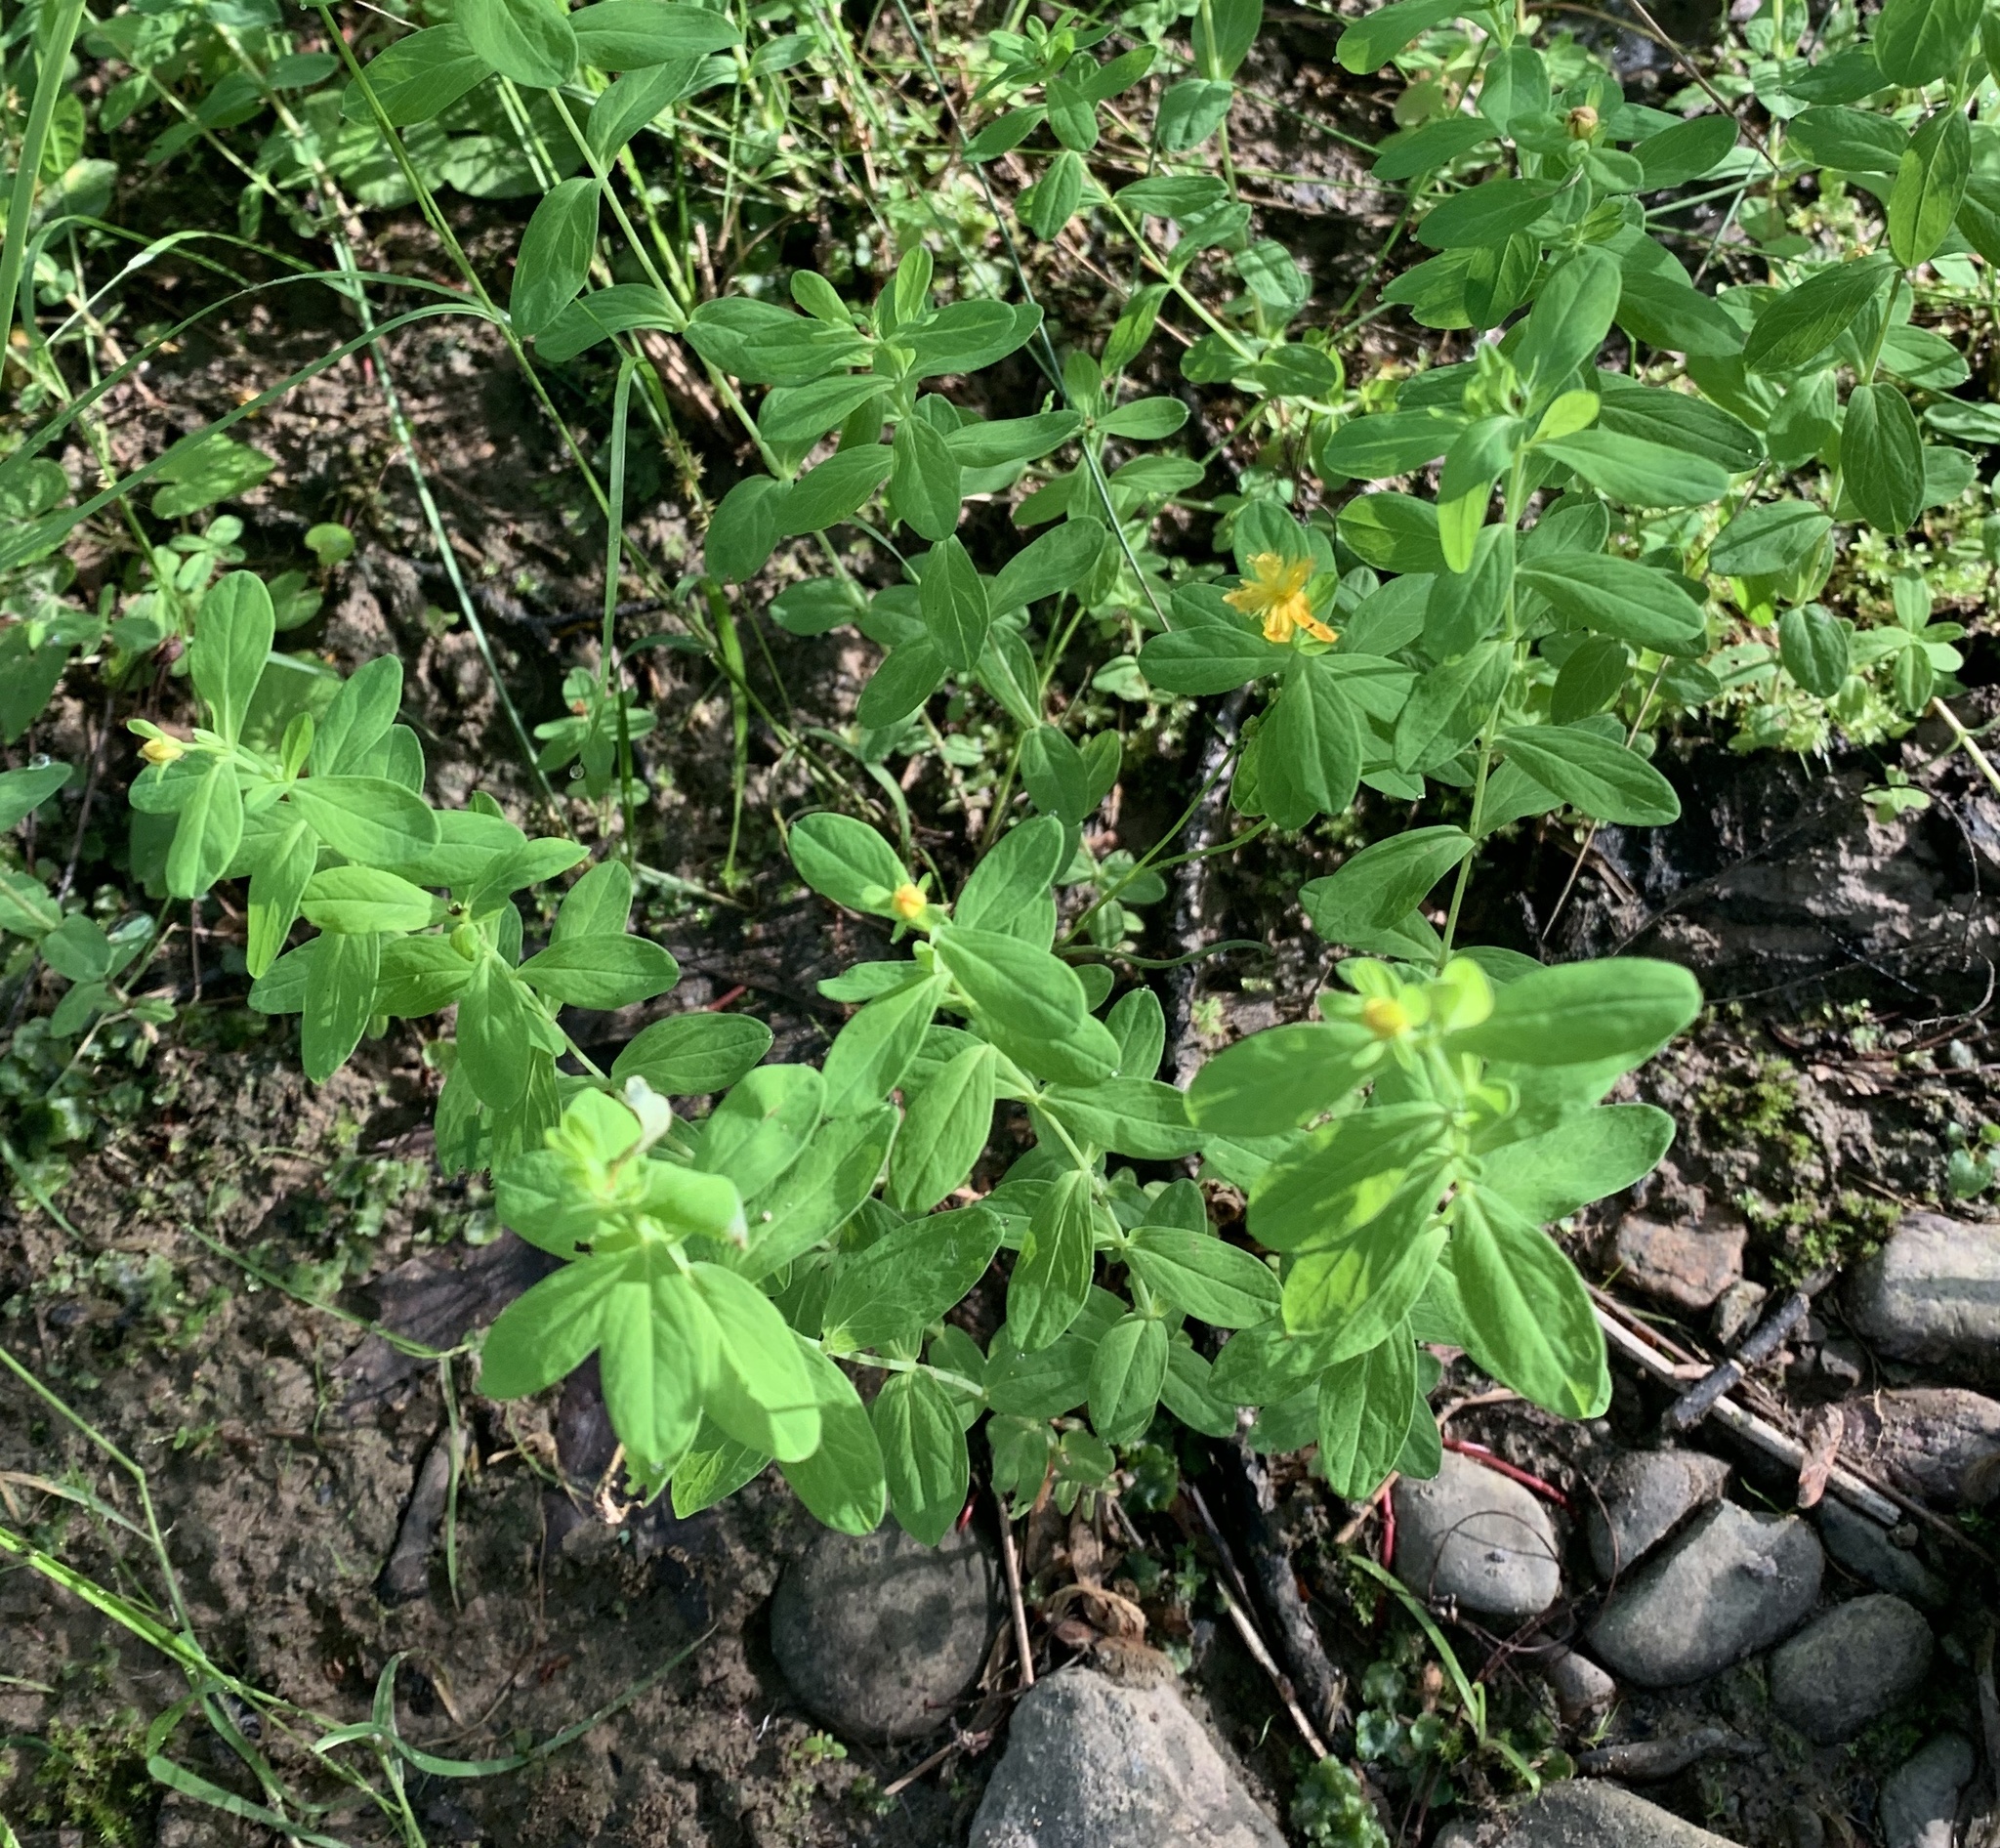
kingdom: Plantae
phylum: Tracheophyta
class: Magnoliopsida
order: Malpighiales
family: Hypericaceae
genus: Hypericum
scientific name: Hypericum ellipticum
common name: Elliptic st. john's-wort
